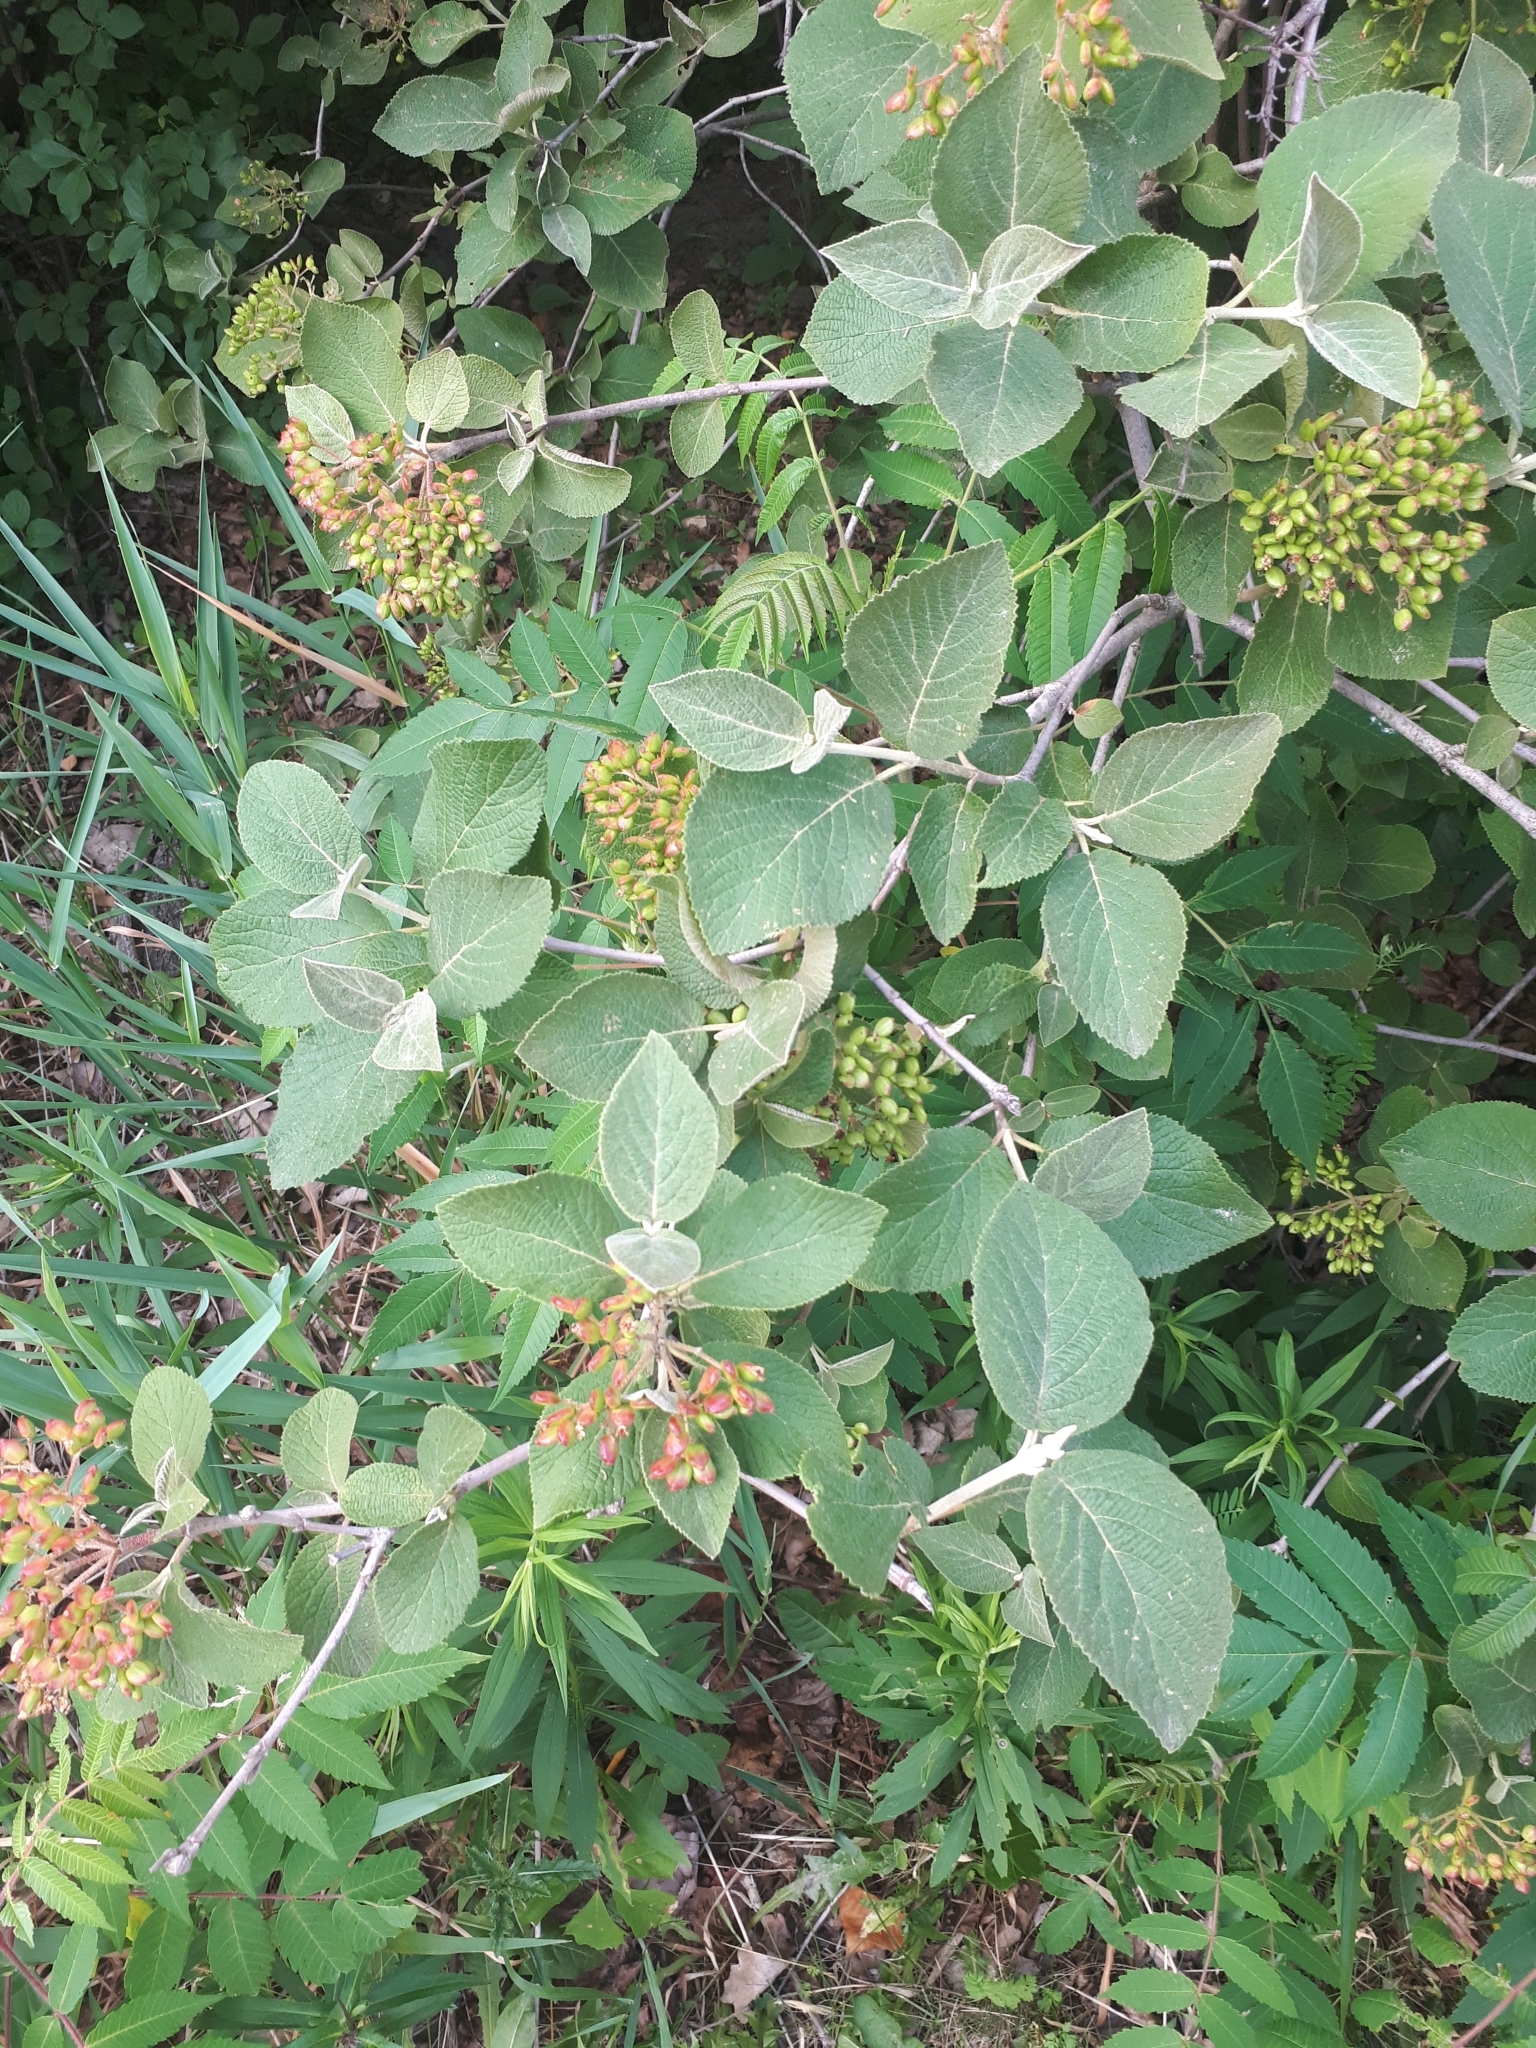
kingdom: Plantae
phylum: Tracheophyta
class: Magnoliopsida
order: Dipsacales
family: Viburnaceae
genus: Viburnum
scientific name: Viburnum lantana
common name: Wayfaring tree
